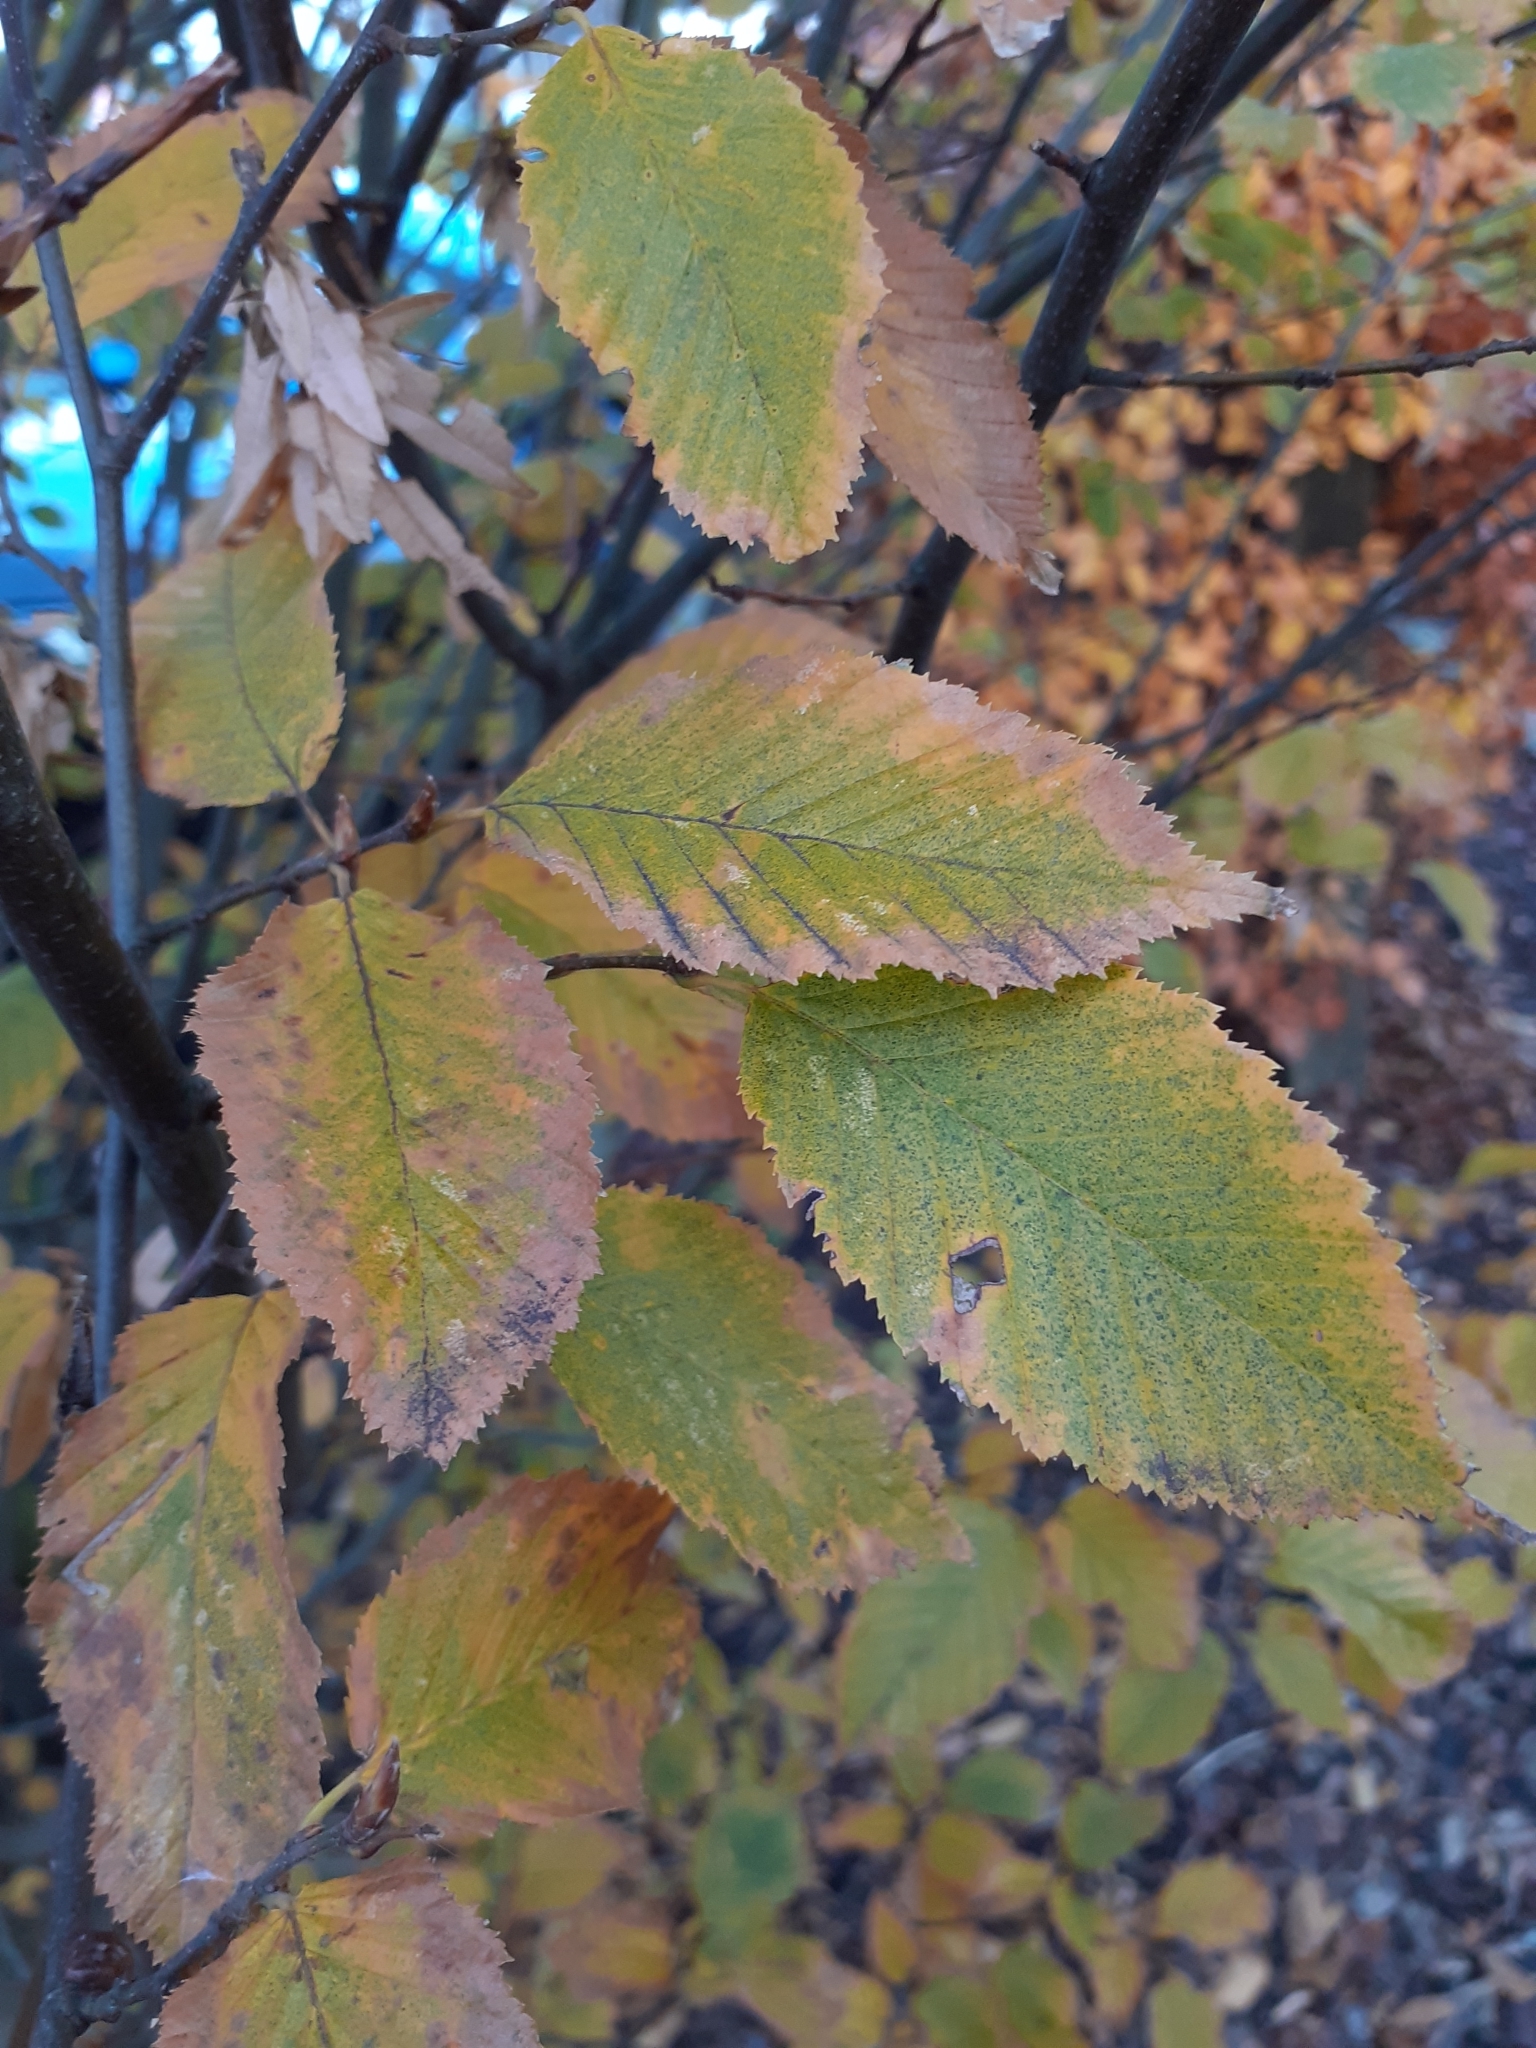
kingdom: Plantae
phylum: Tracheophyta
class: Magnoliopsida
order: Fagales
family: Betulaceae
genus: Carpinus
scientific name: Carpinus betulus
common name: Hornbeam
